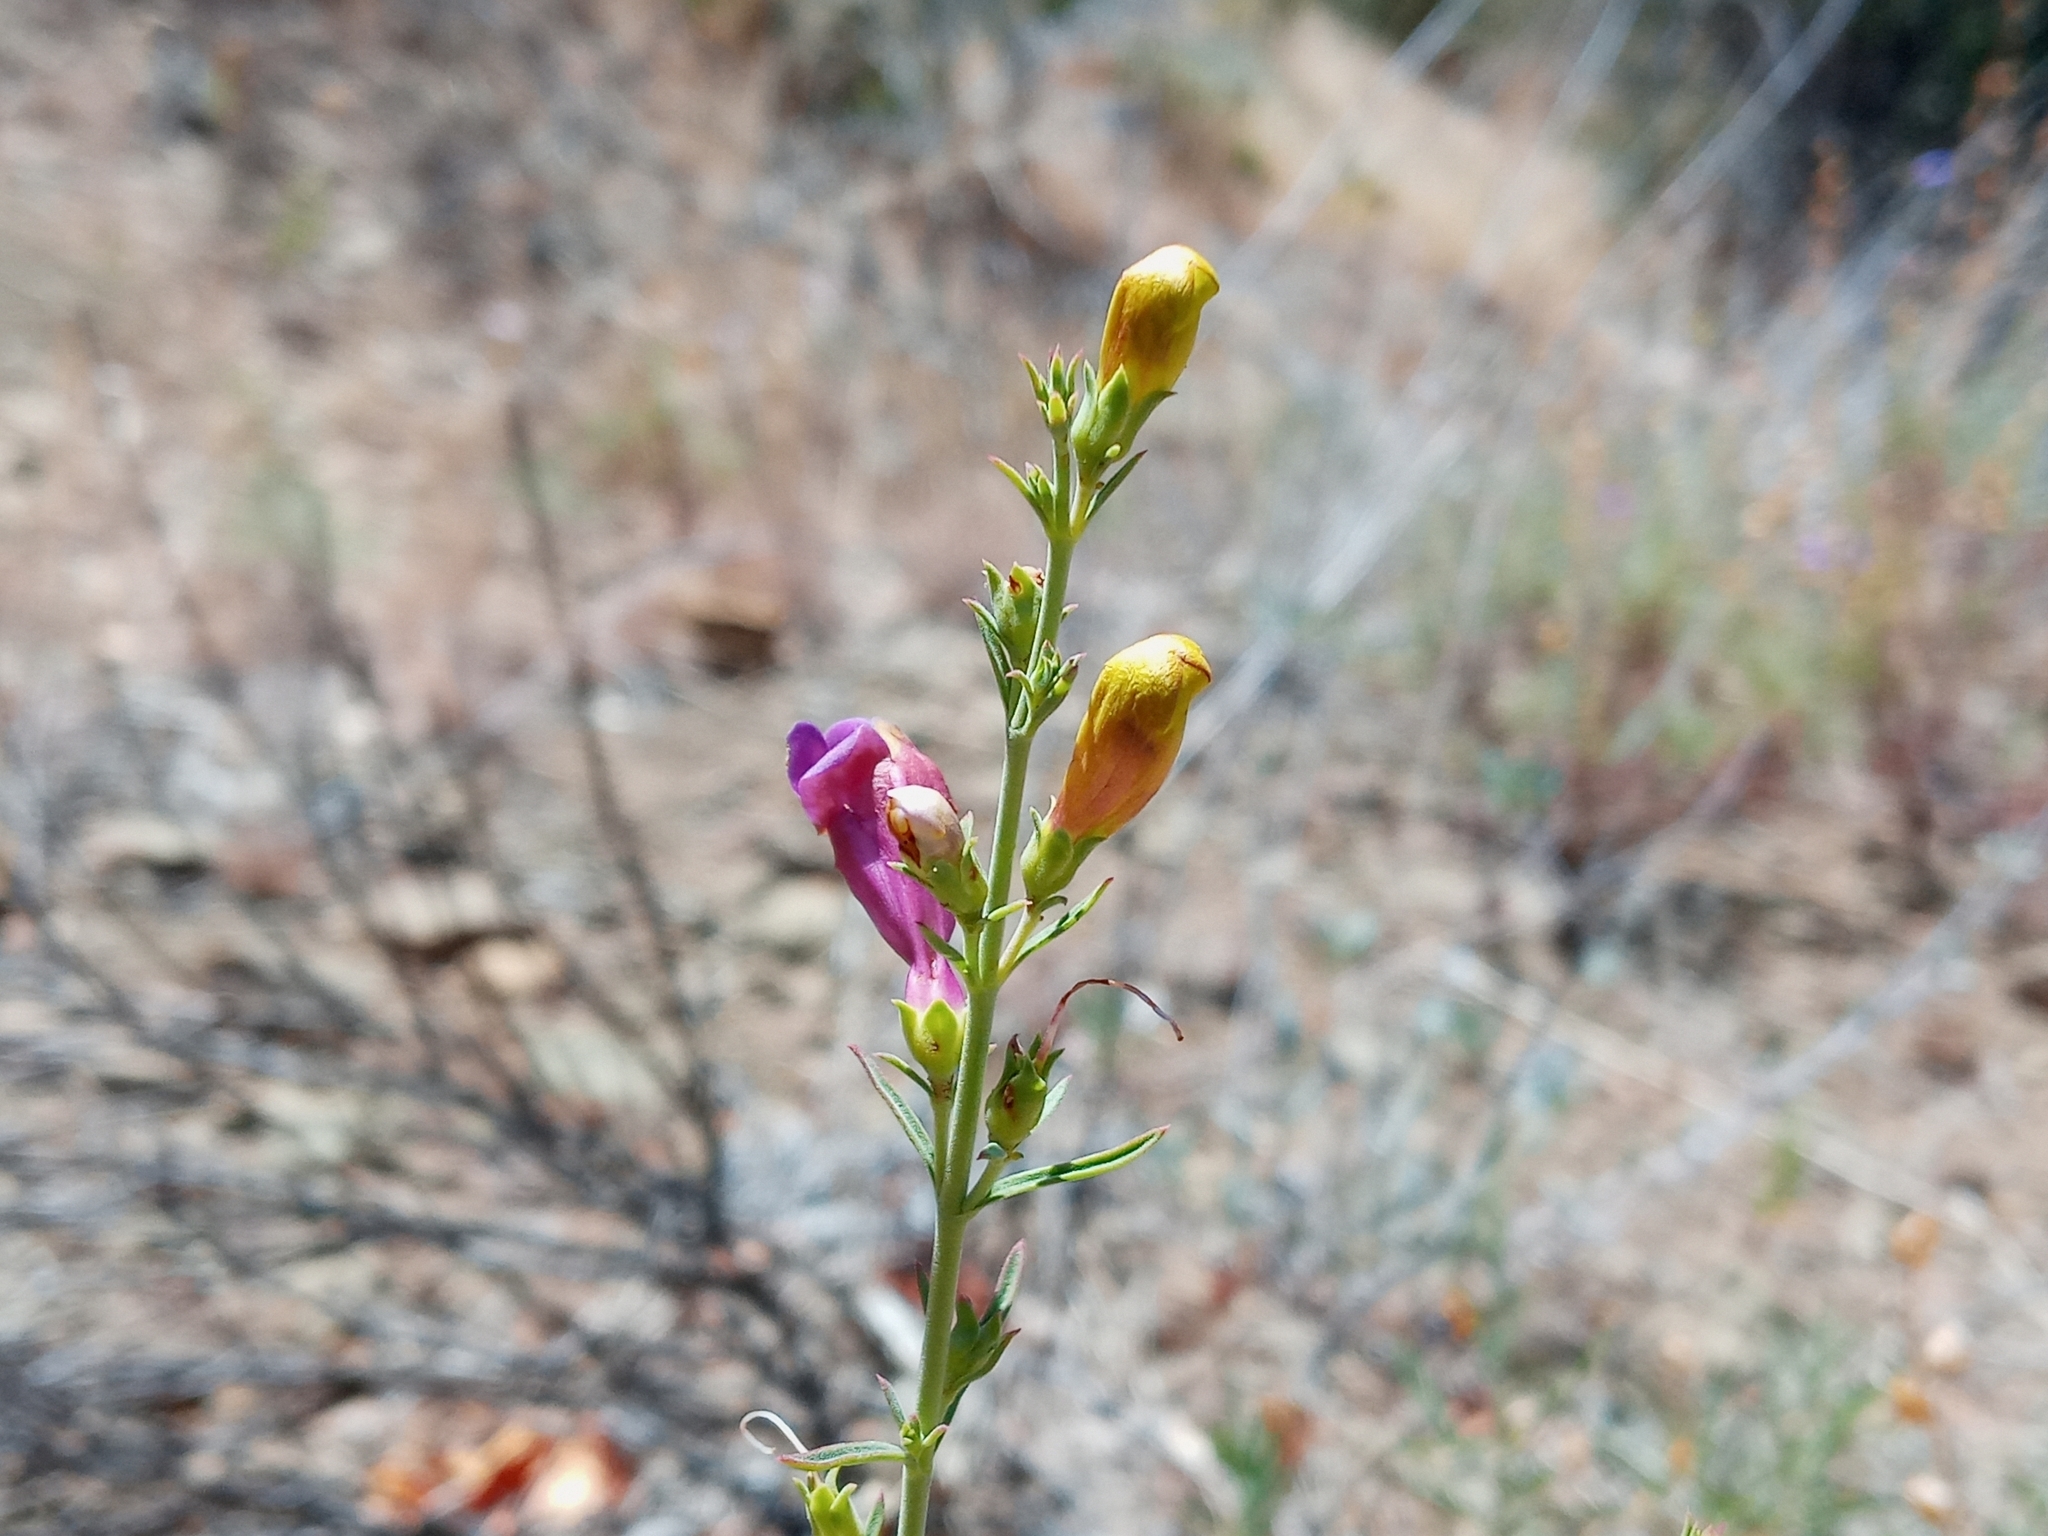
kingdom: Plantae
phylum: Tracheophyta
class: Magnoliopsida
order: Lamiales
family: Plantaginaceae
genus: Penstemon
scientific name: Penstemon heterophyllus
